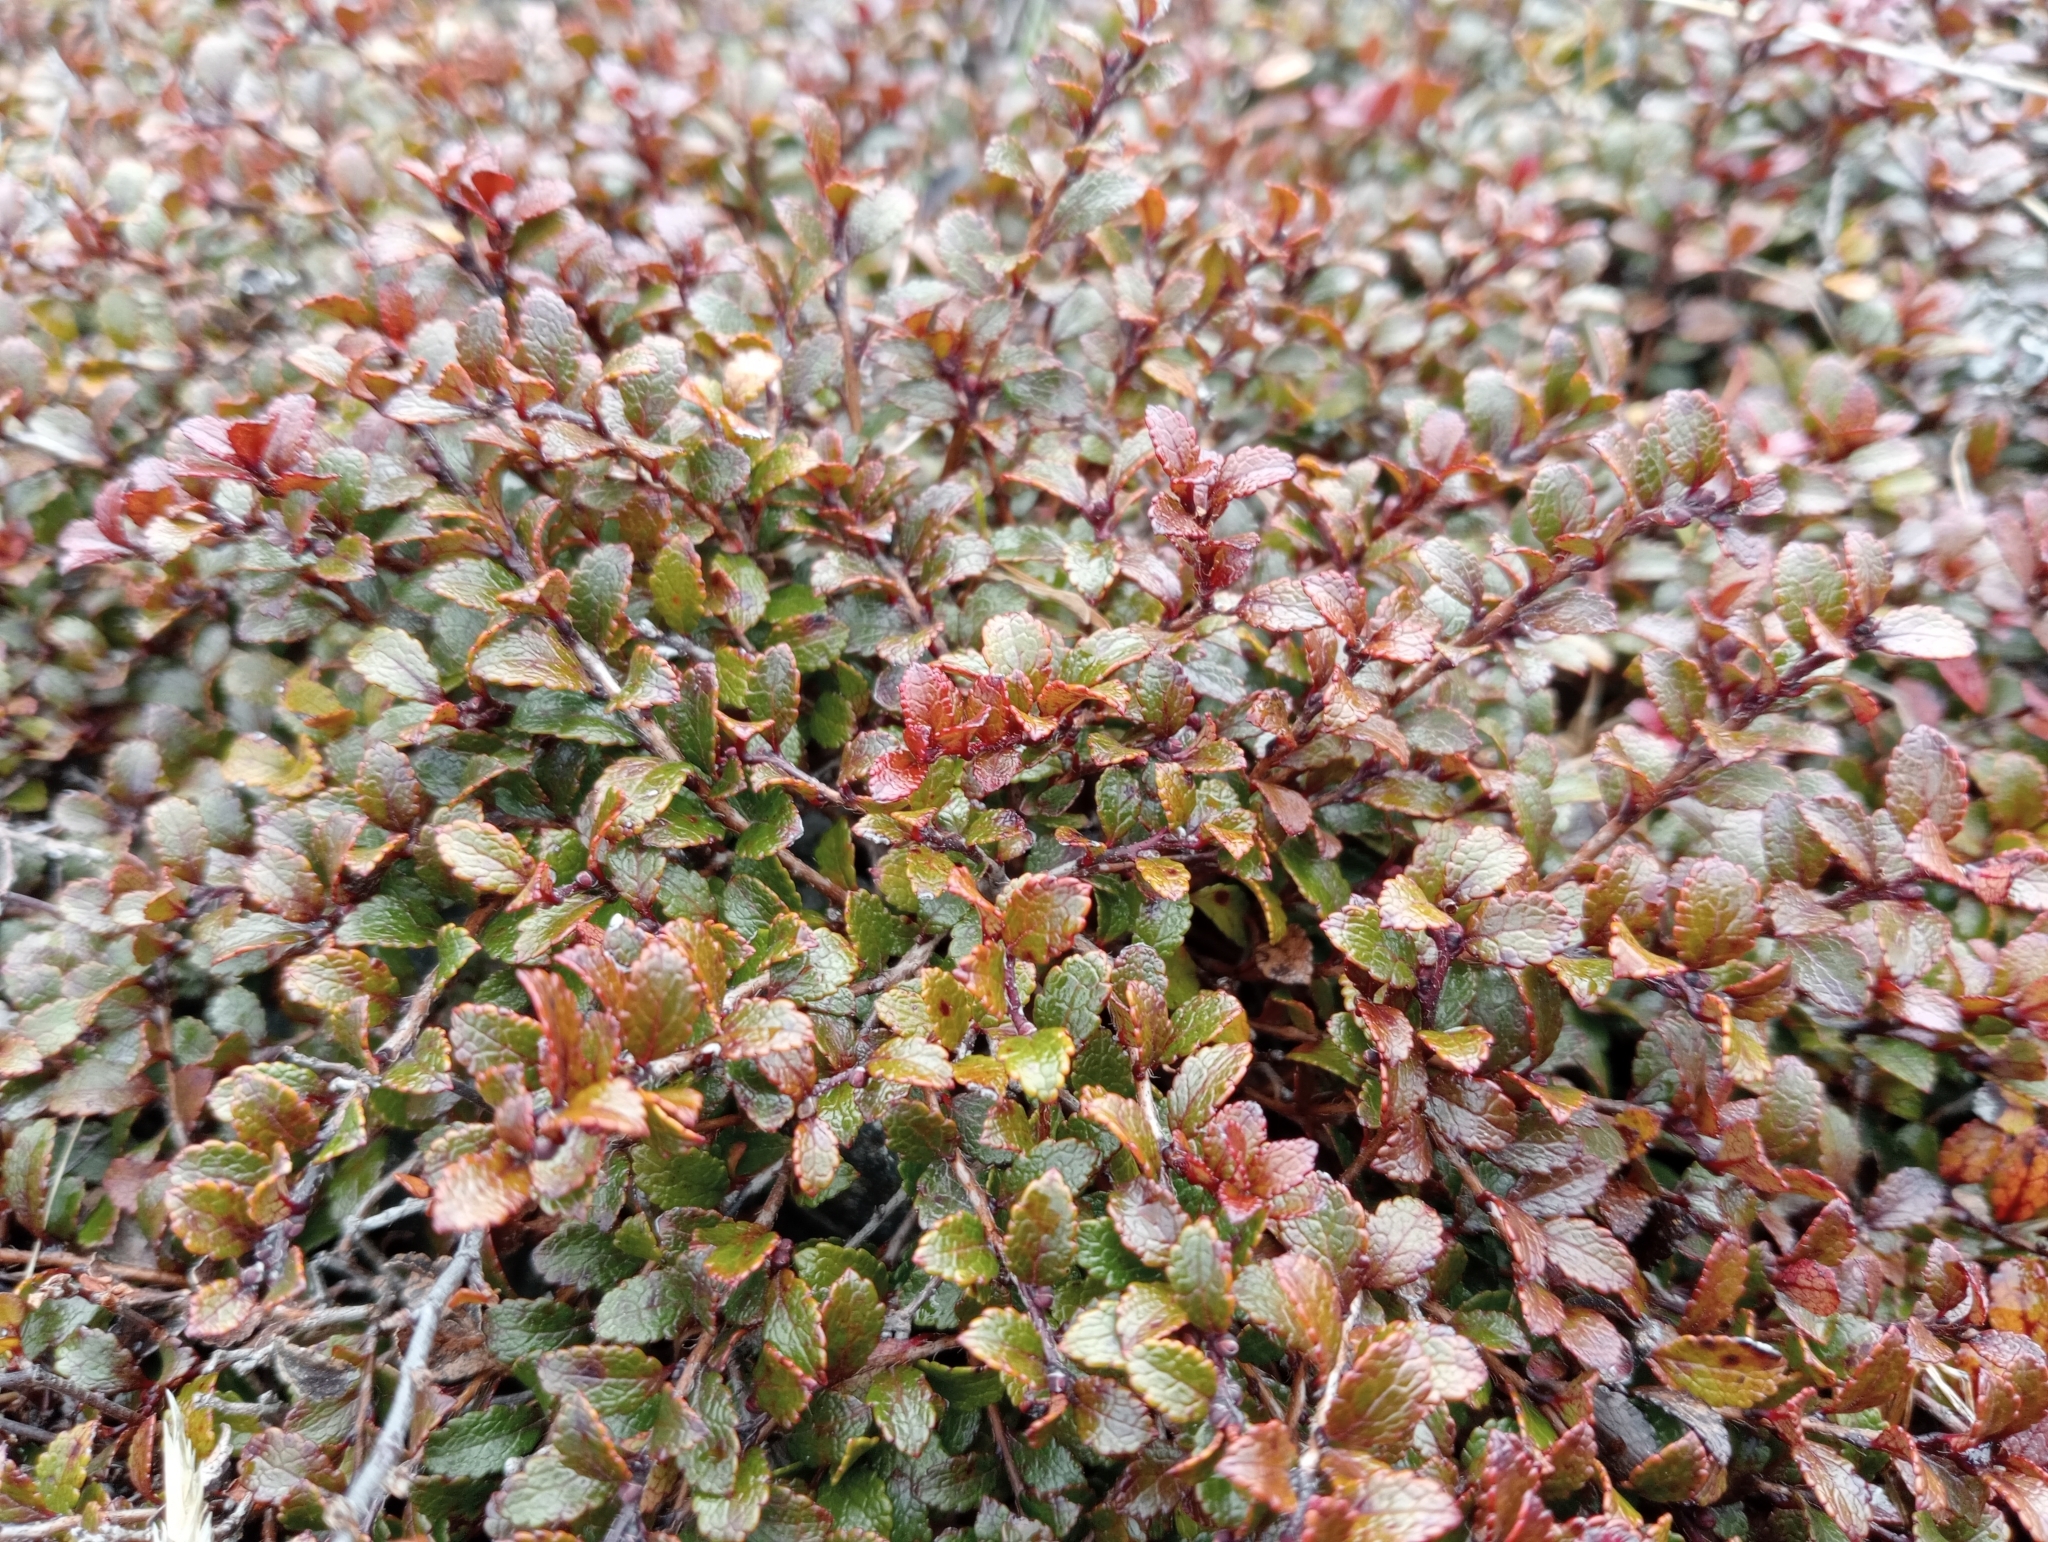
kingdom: Plantae
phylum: Tracheophyta
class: Magnoliopsida
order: Ericales
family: Ericaceae
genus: Gaultheria
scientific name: Gaultheria depressa
